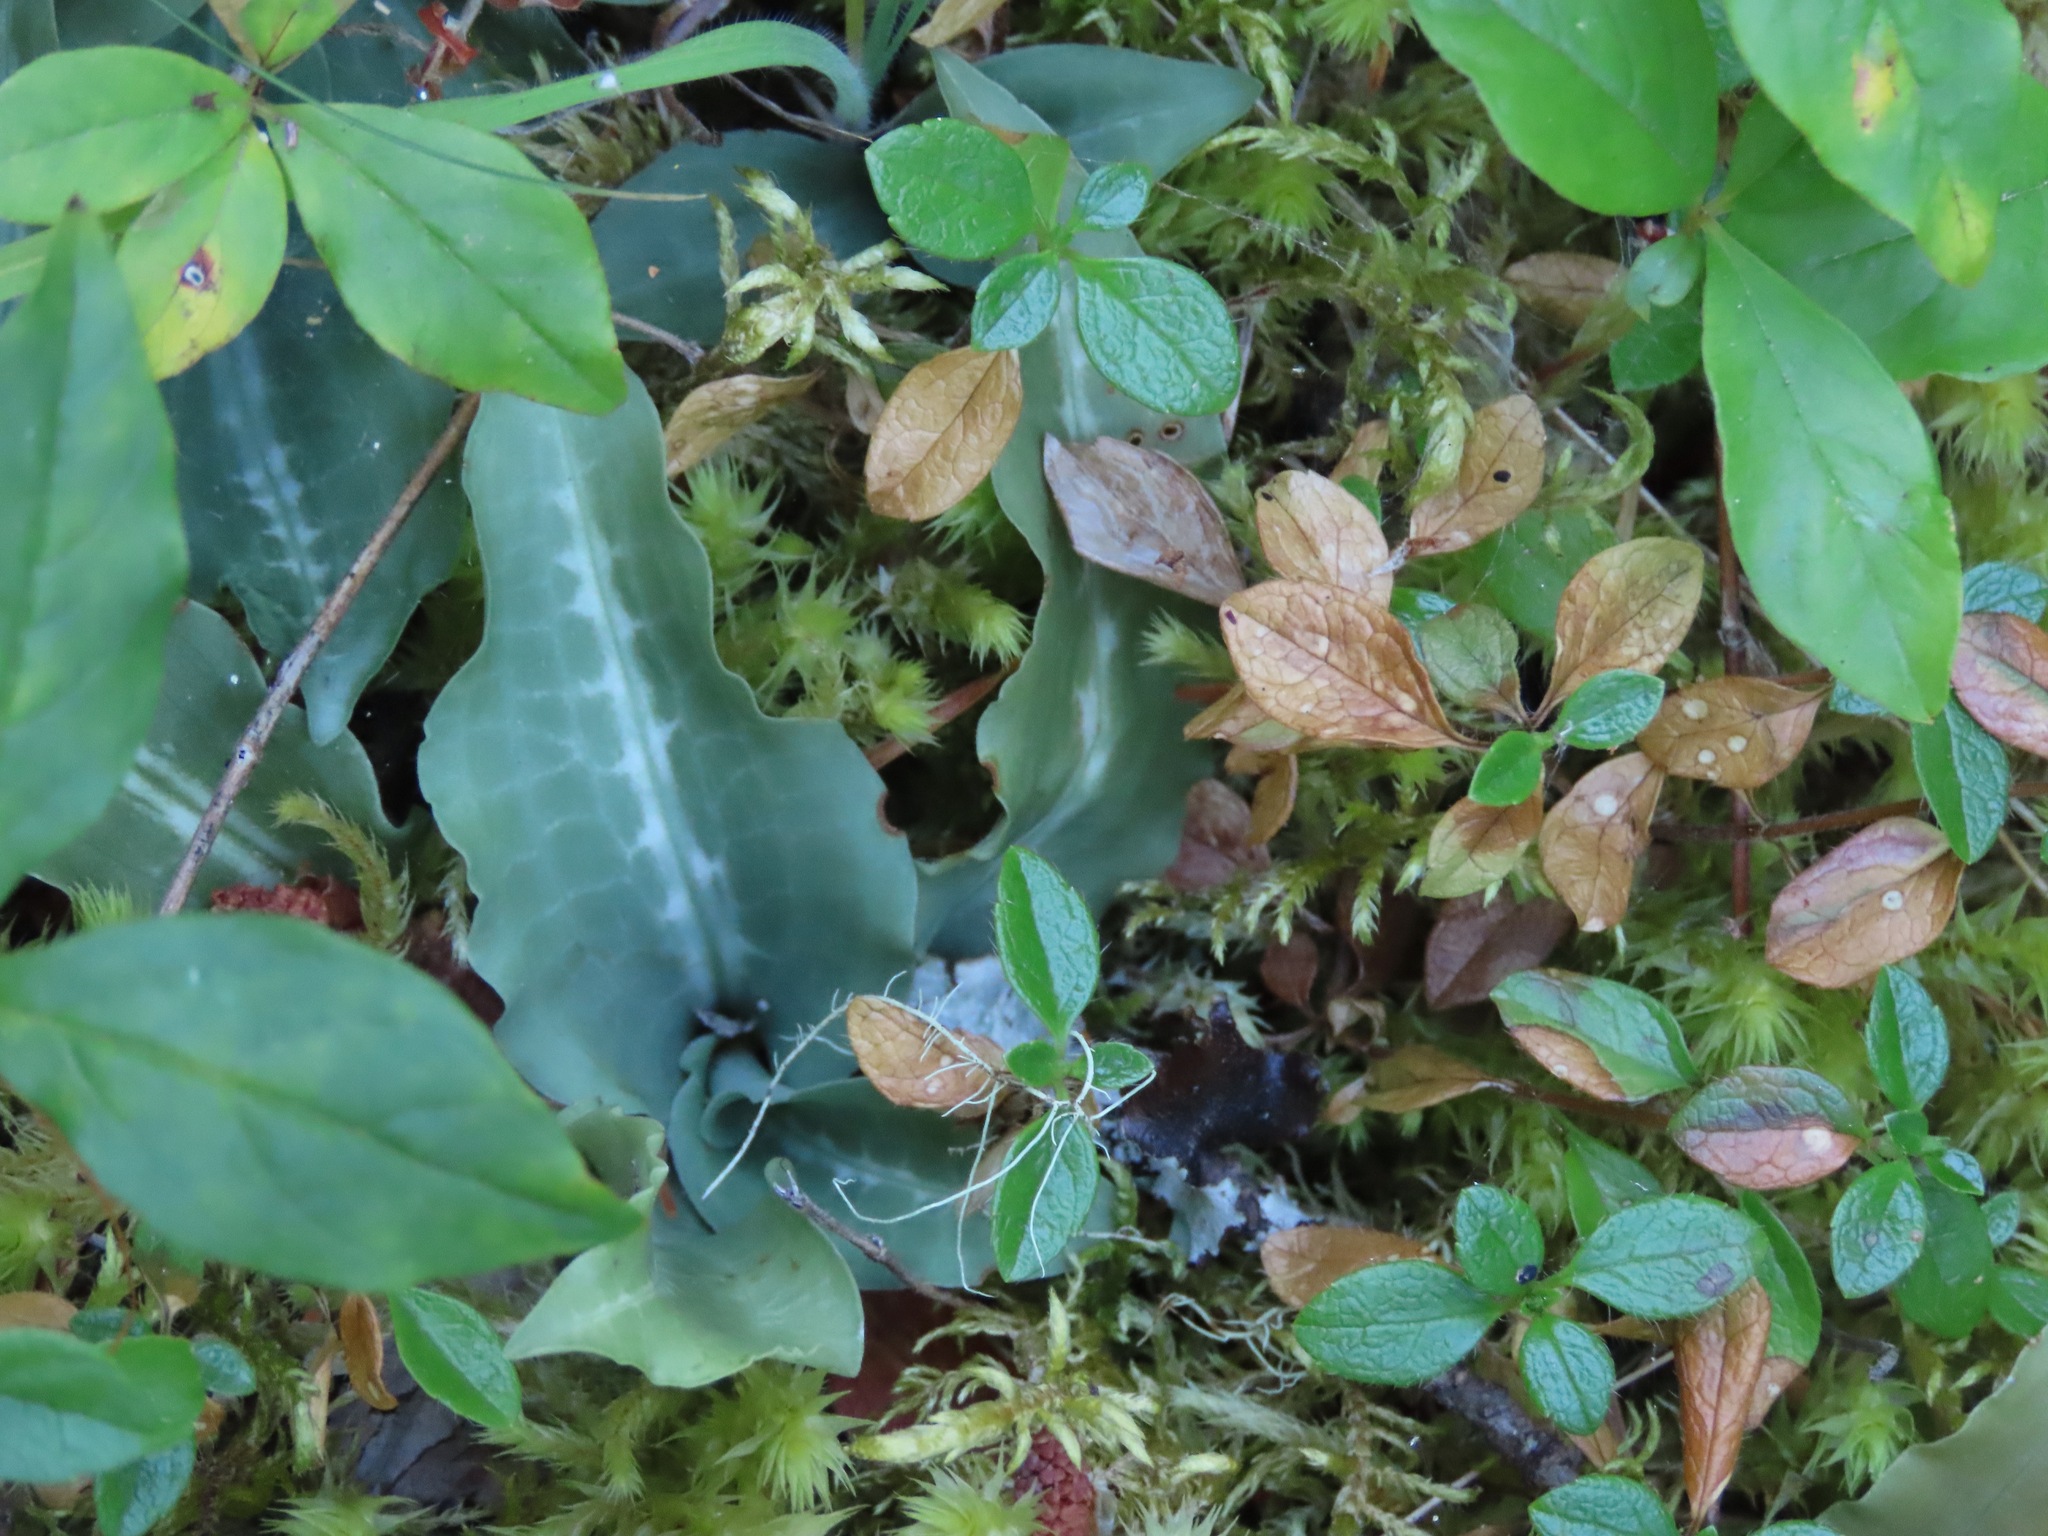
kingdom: Plantae
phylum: Tracheophyta
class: Liliopsida
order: Asparagales
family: Orchidaceae
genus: Goodyera
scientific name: Goodyera oblongifolia
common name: Giant rattlesnake-plantain
